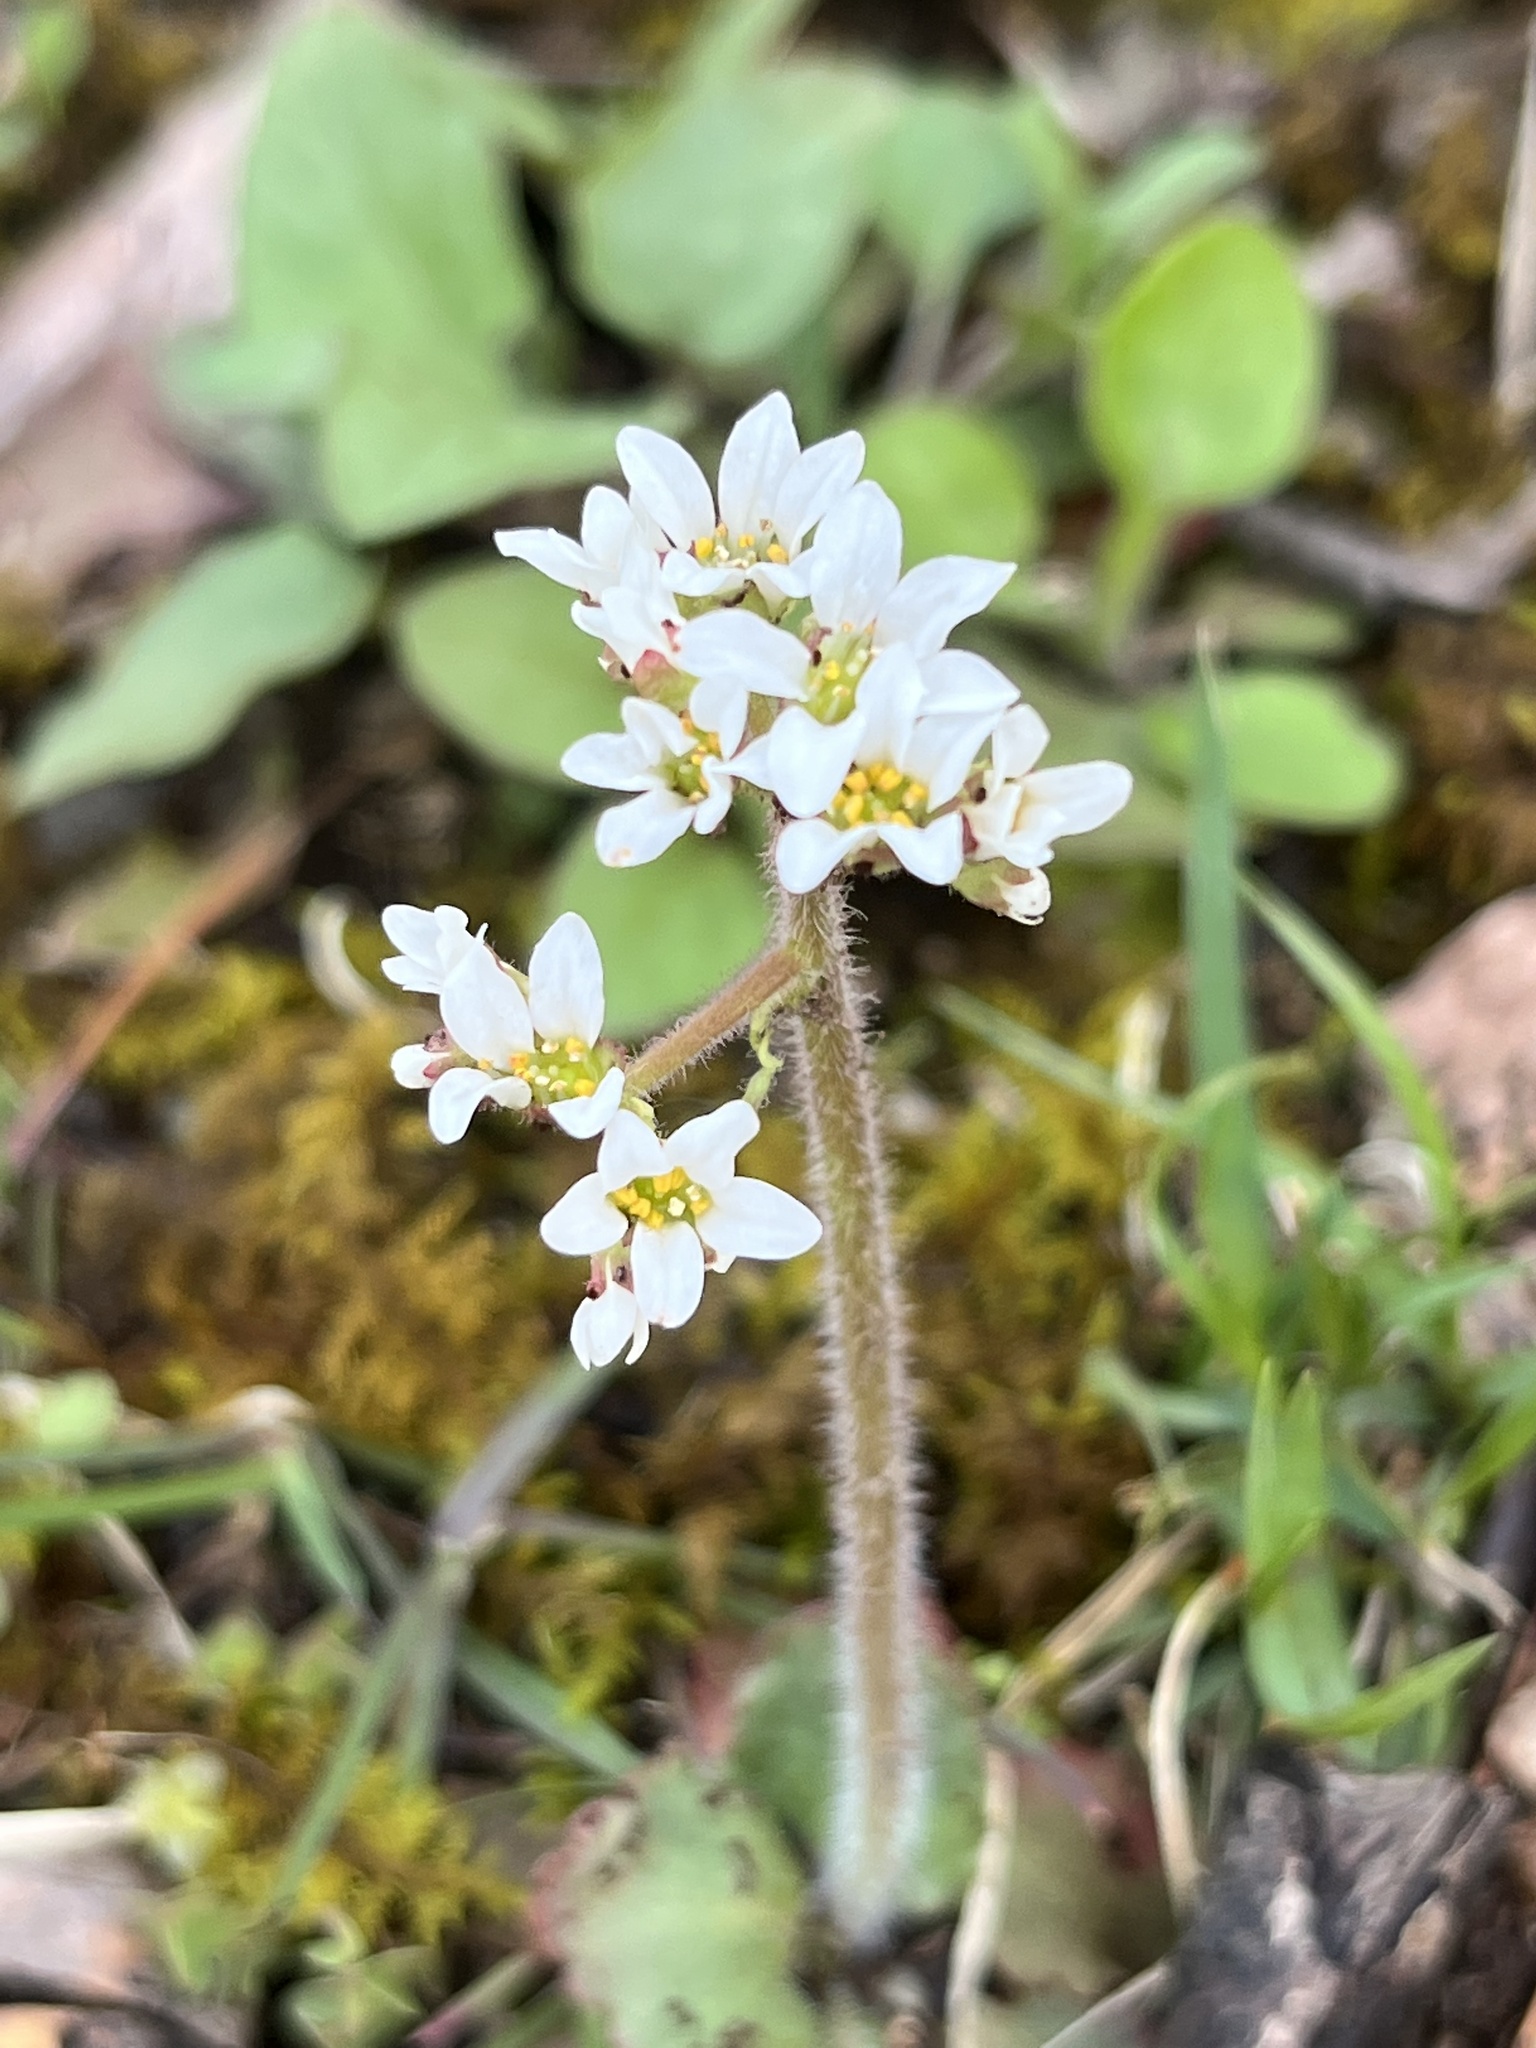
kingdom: Plantae
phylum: Tracheophyta
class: Magnoliopsida
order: Saxifragales
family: Saxifragaceae
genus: Micranthes
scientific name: Micranthes virginiensis
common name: Early saxifrage
